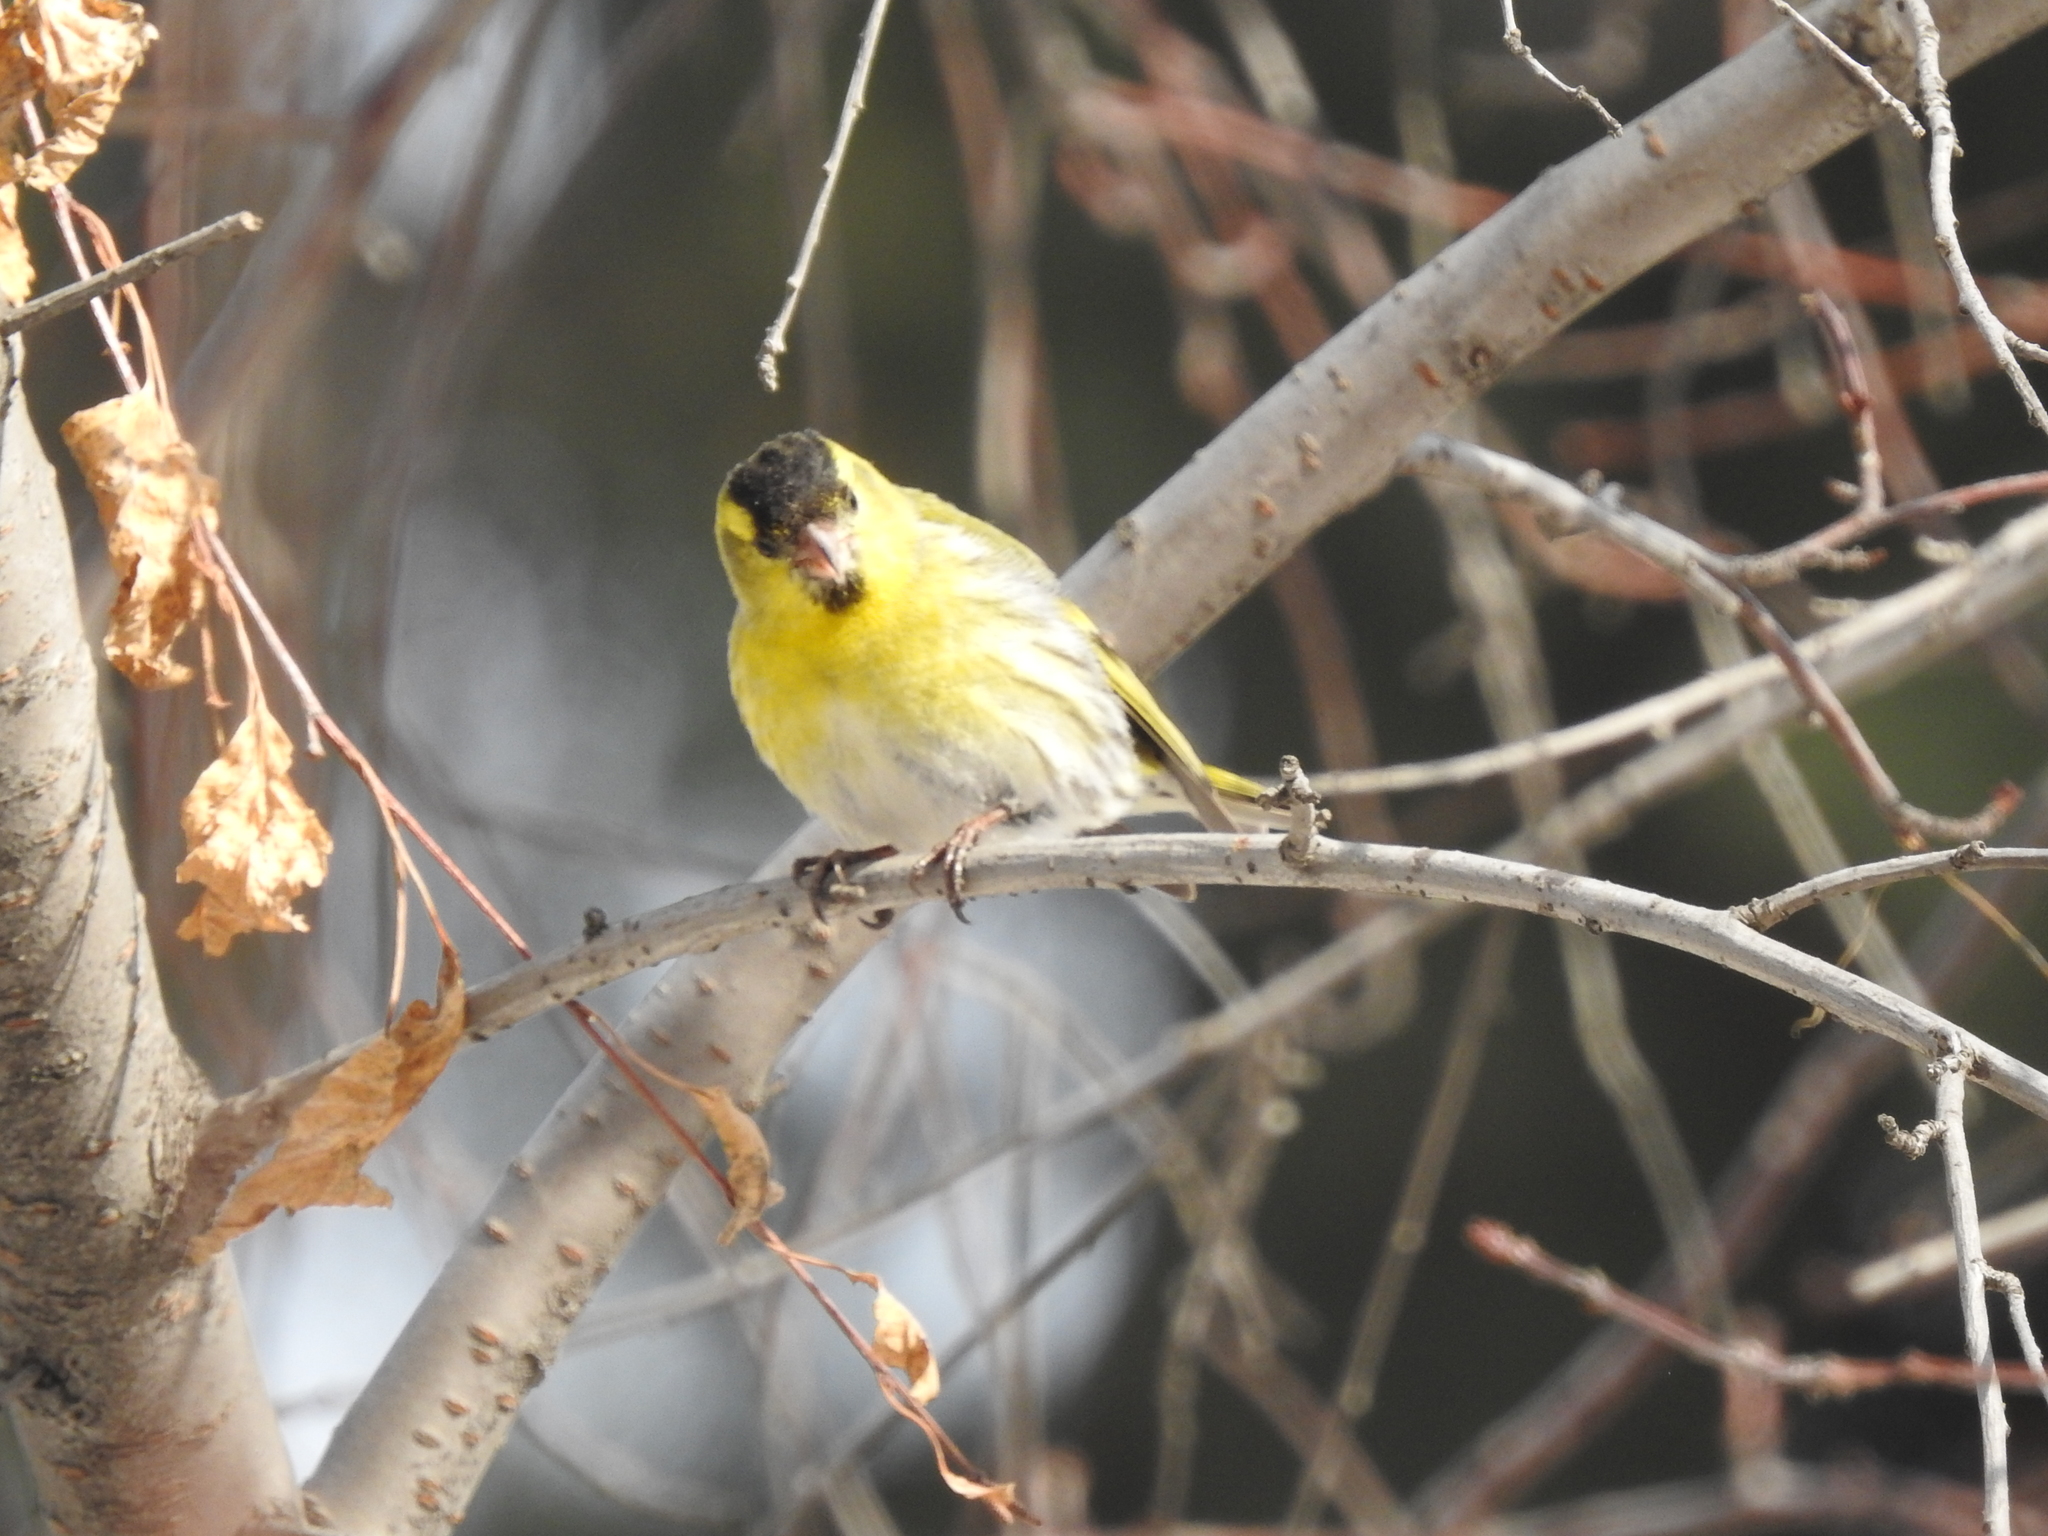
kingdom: Animalia
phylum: Chordata
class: Aves
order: Passeriformes
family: Fringillidae
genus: Spinus
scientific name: Spinus spinus
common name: Eurasian siskin
